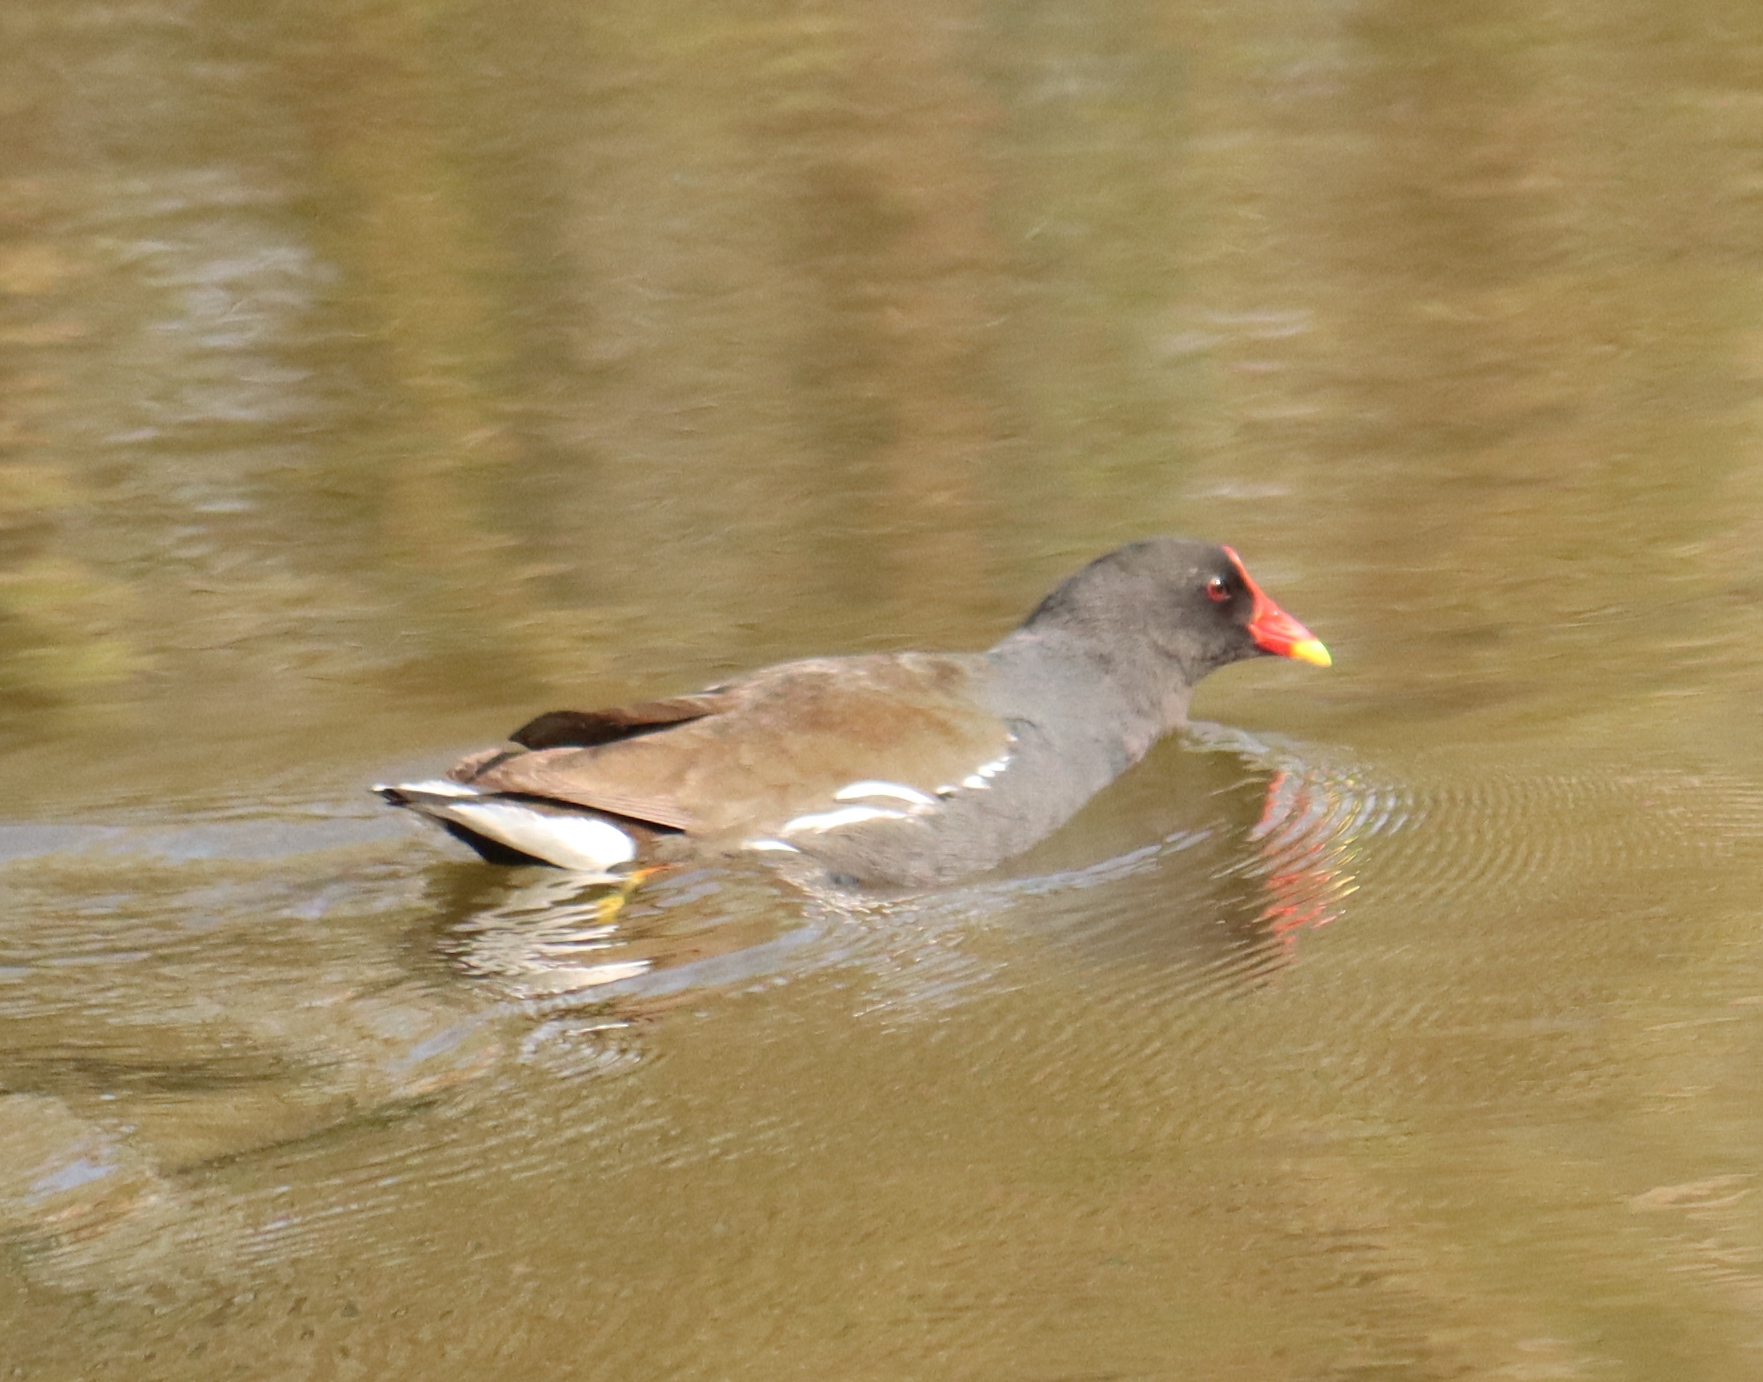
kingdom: Animalia
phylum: Chordata
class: Aves
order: Gruiformes
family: Rallidae
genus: Gallinula
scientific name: Gallinula chloropus
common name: Common moorhen
